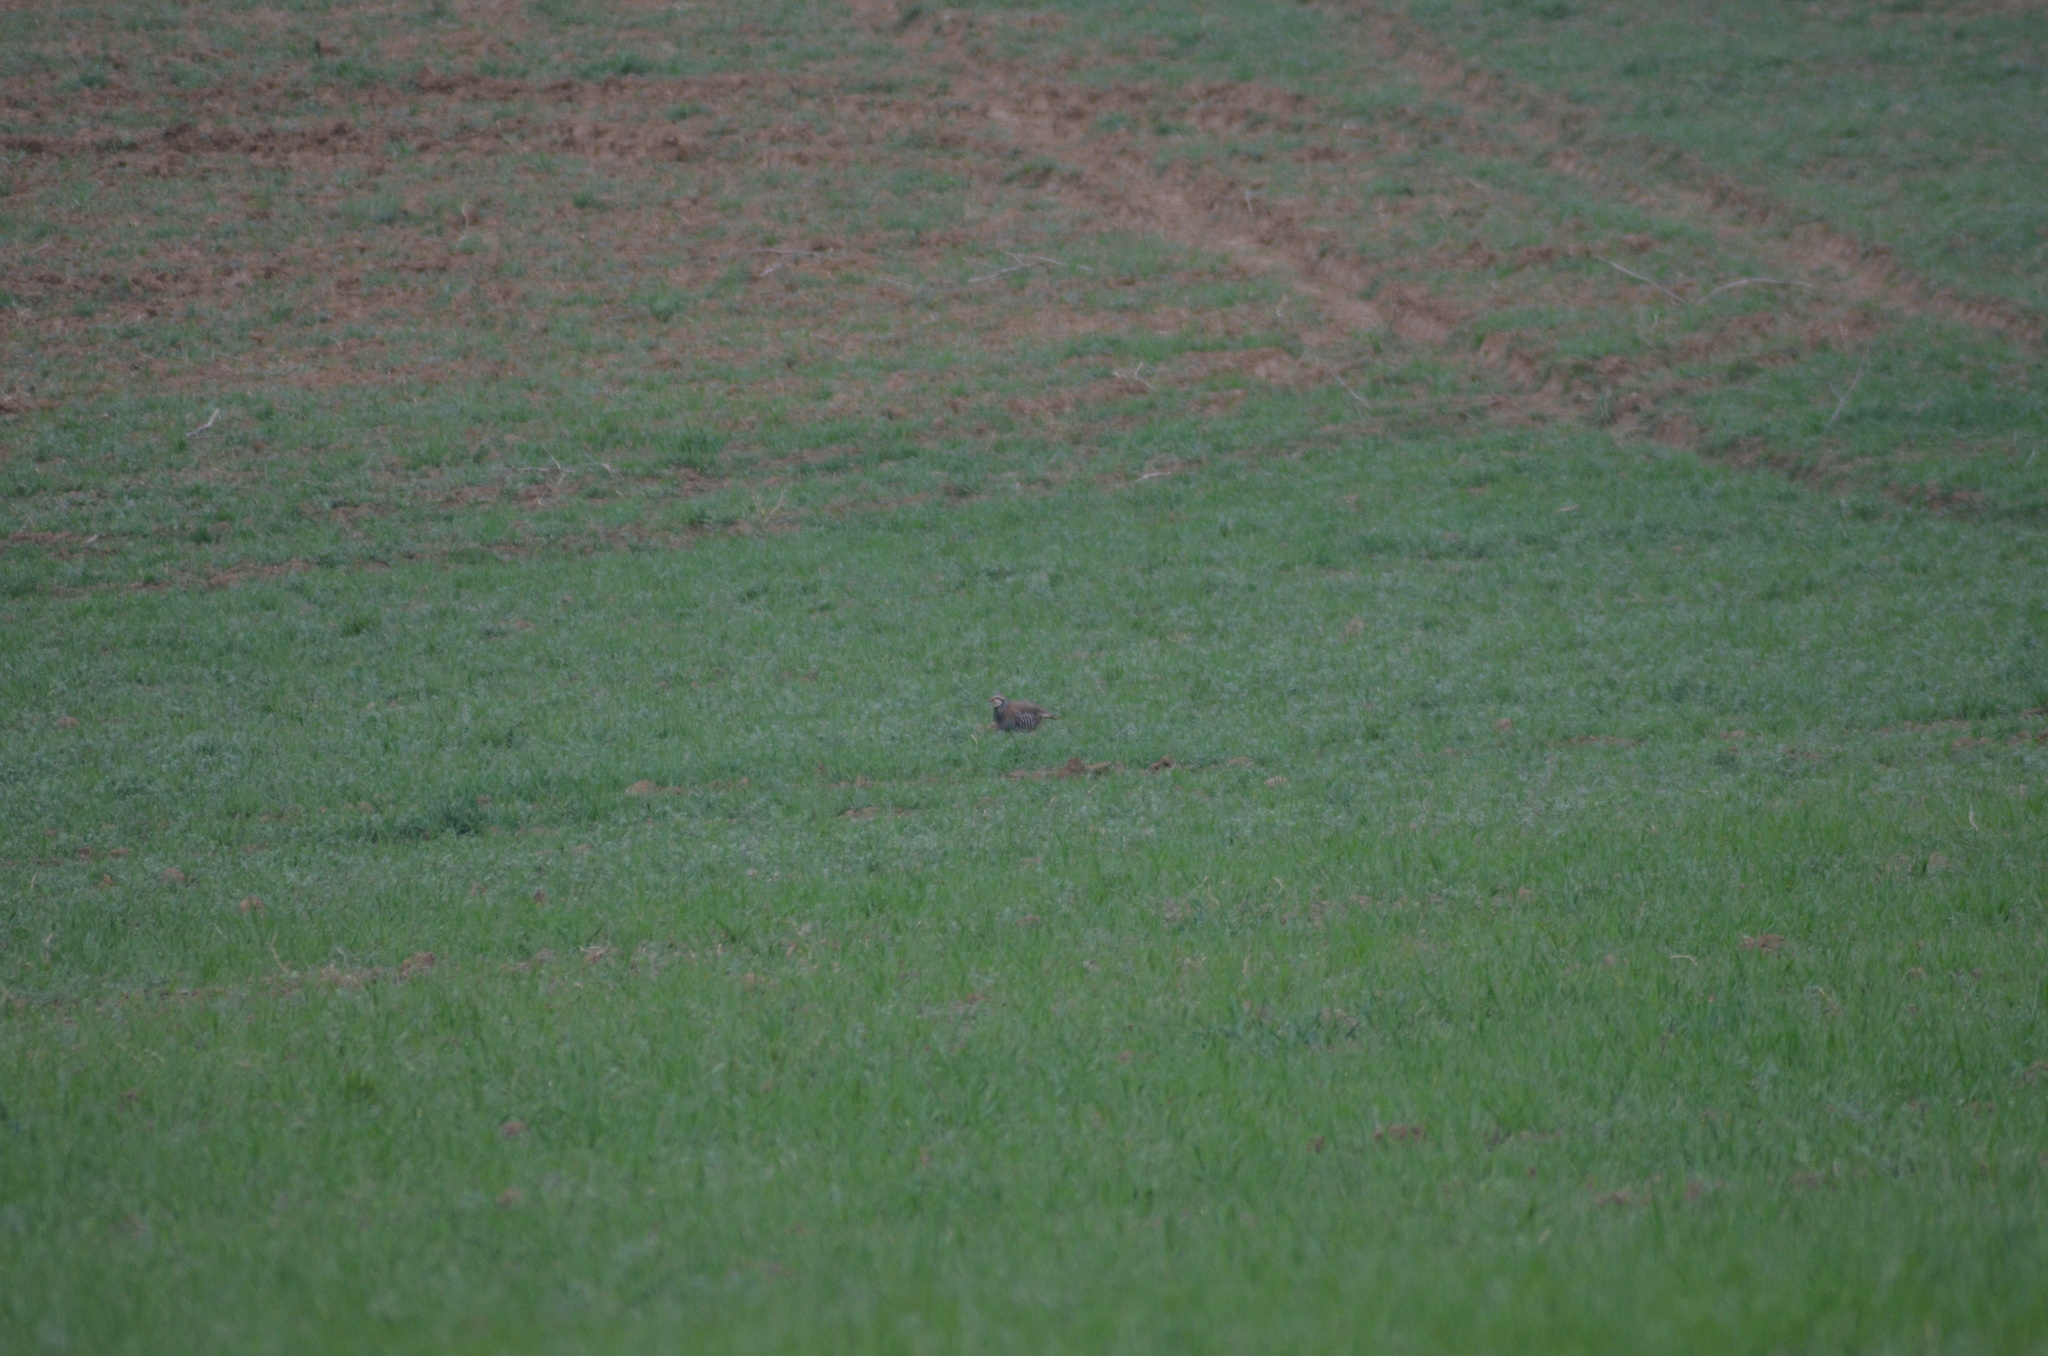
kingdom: Animalia
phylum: Chordata
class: Aves
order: Galliformes
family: Phasianidae
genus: Alectoris
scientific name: Alectoris rufa
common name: Red-legged partridge
